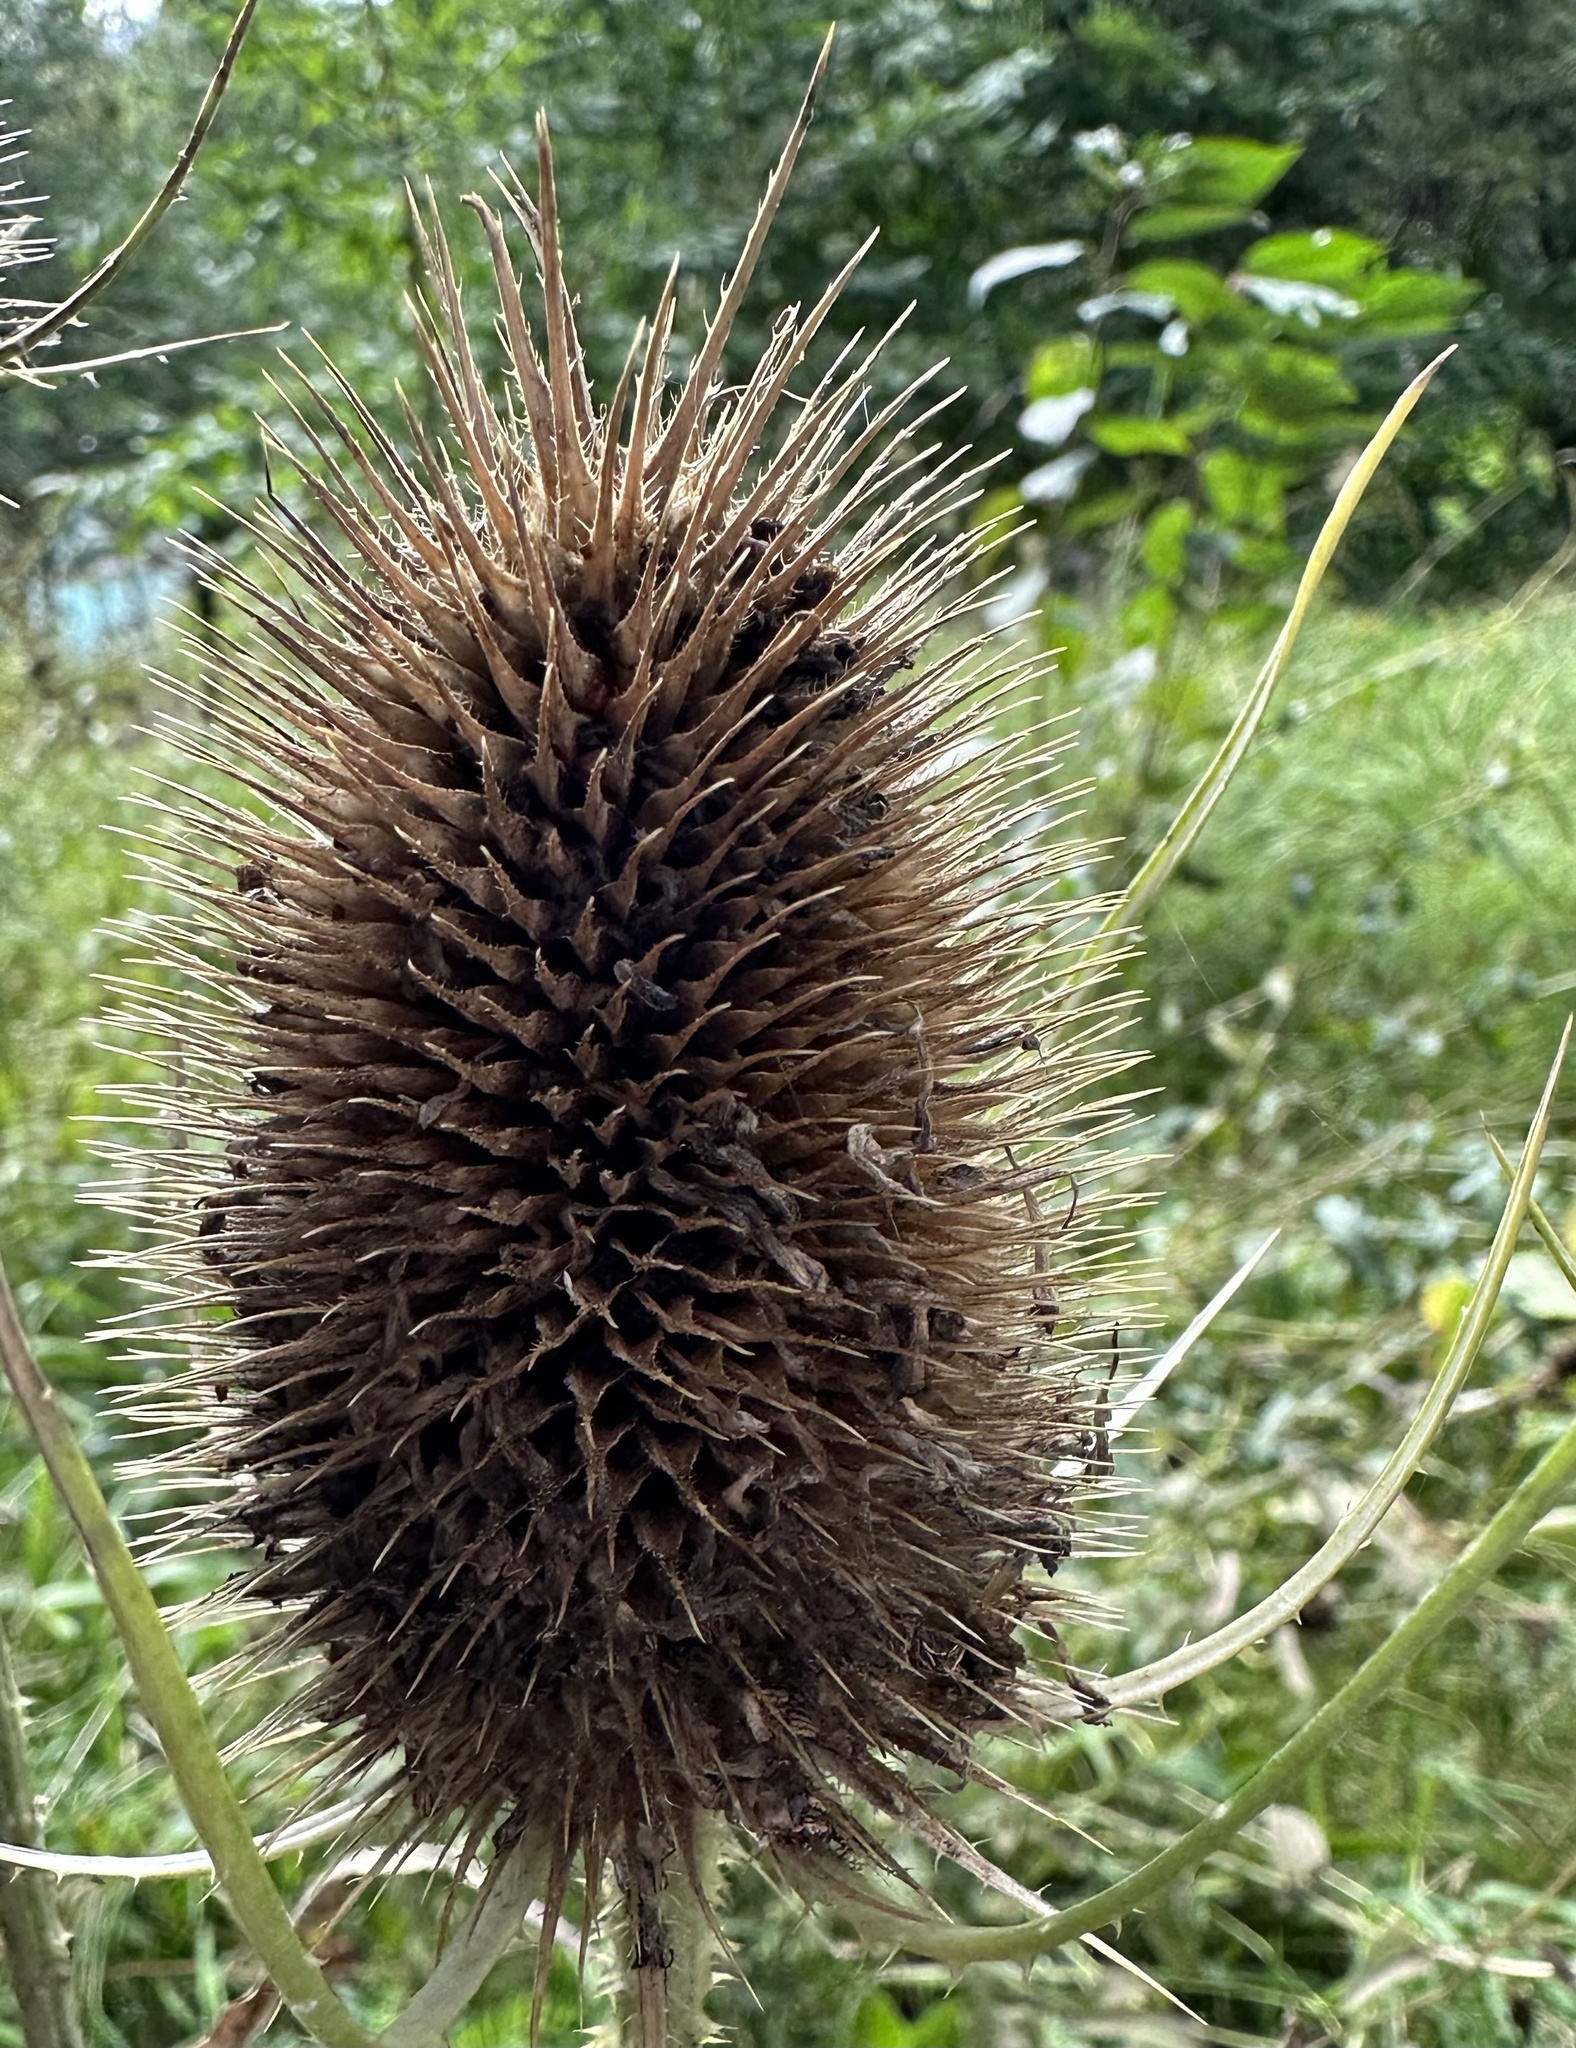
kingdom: Plantae
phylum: Tracheophyta
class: Magnoliopsida
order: Dipsacales
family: Caprifoliaceae
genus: Dipsacus
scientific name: Dipsacus fullonum
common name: Teasel
